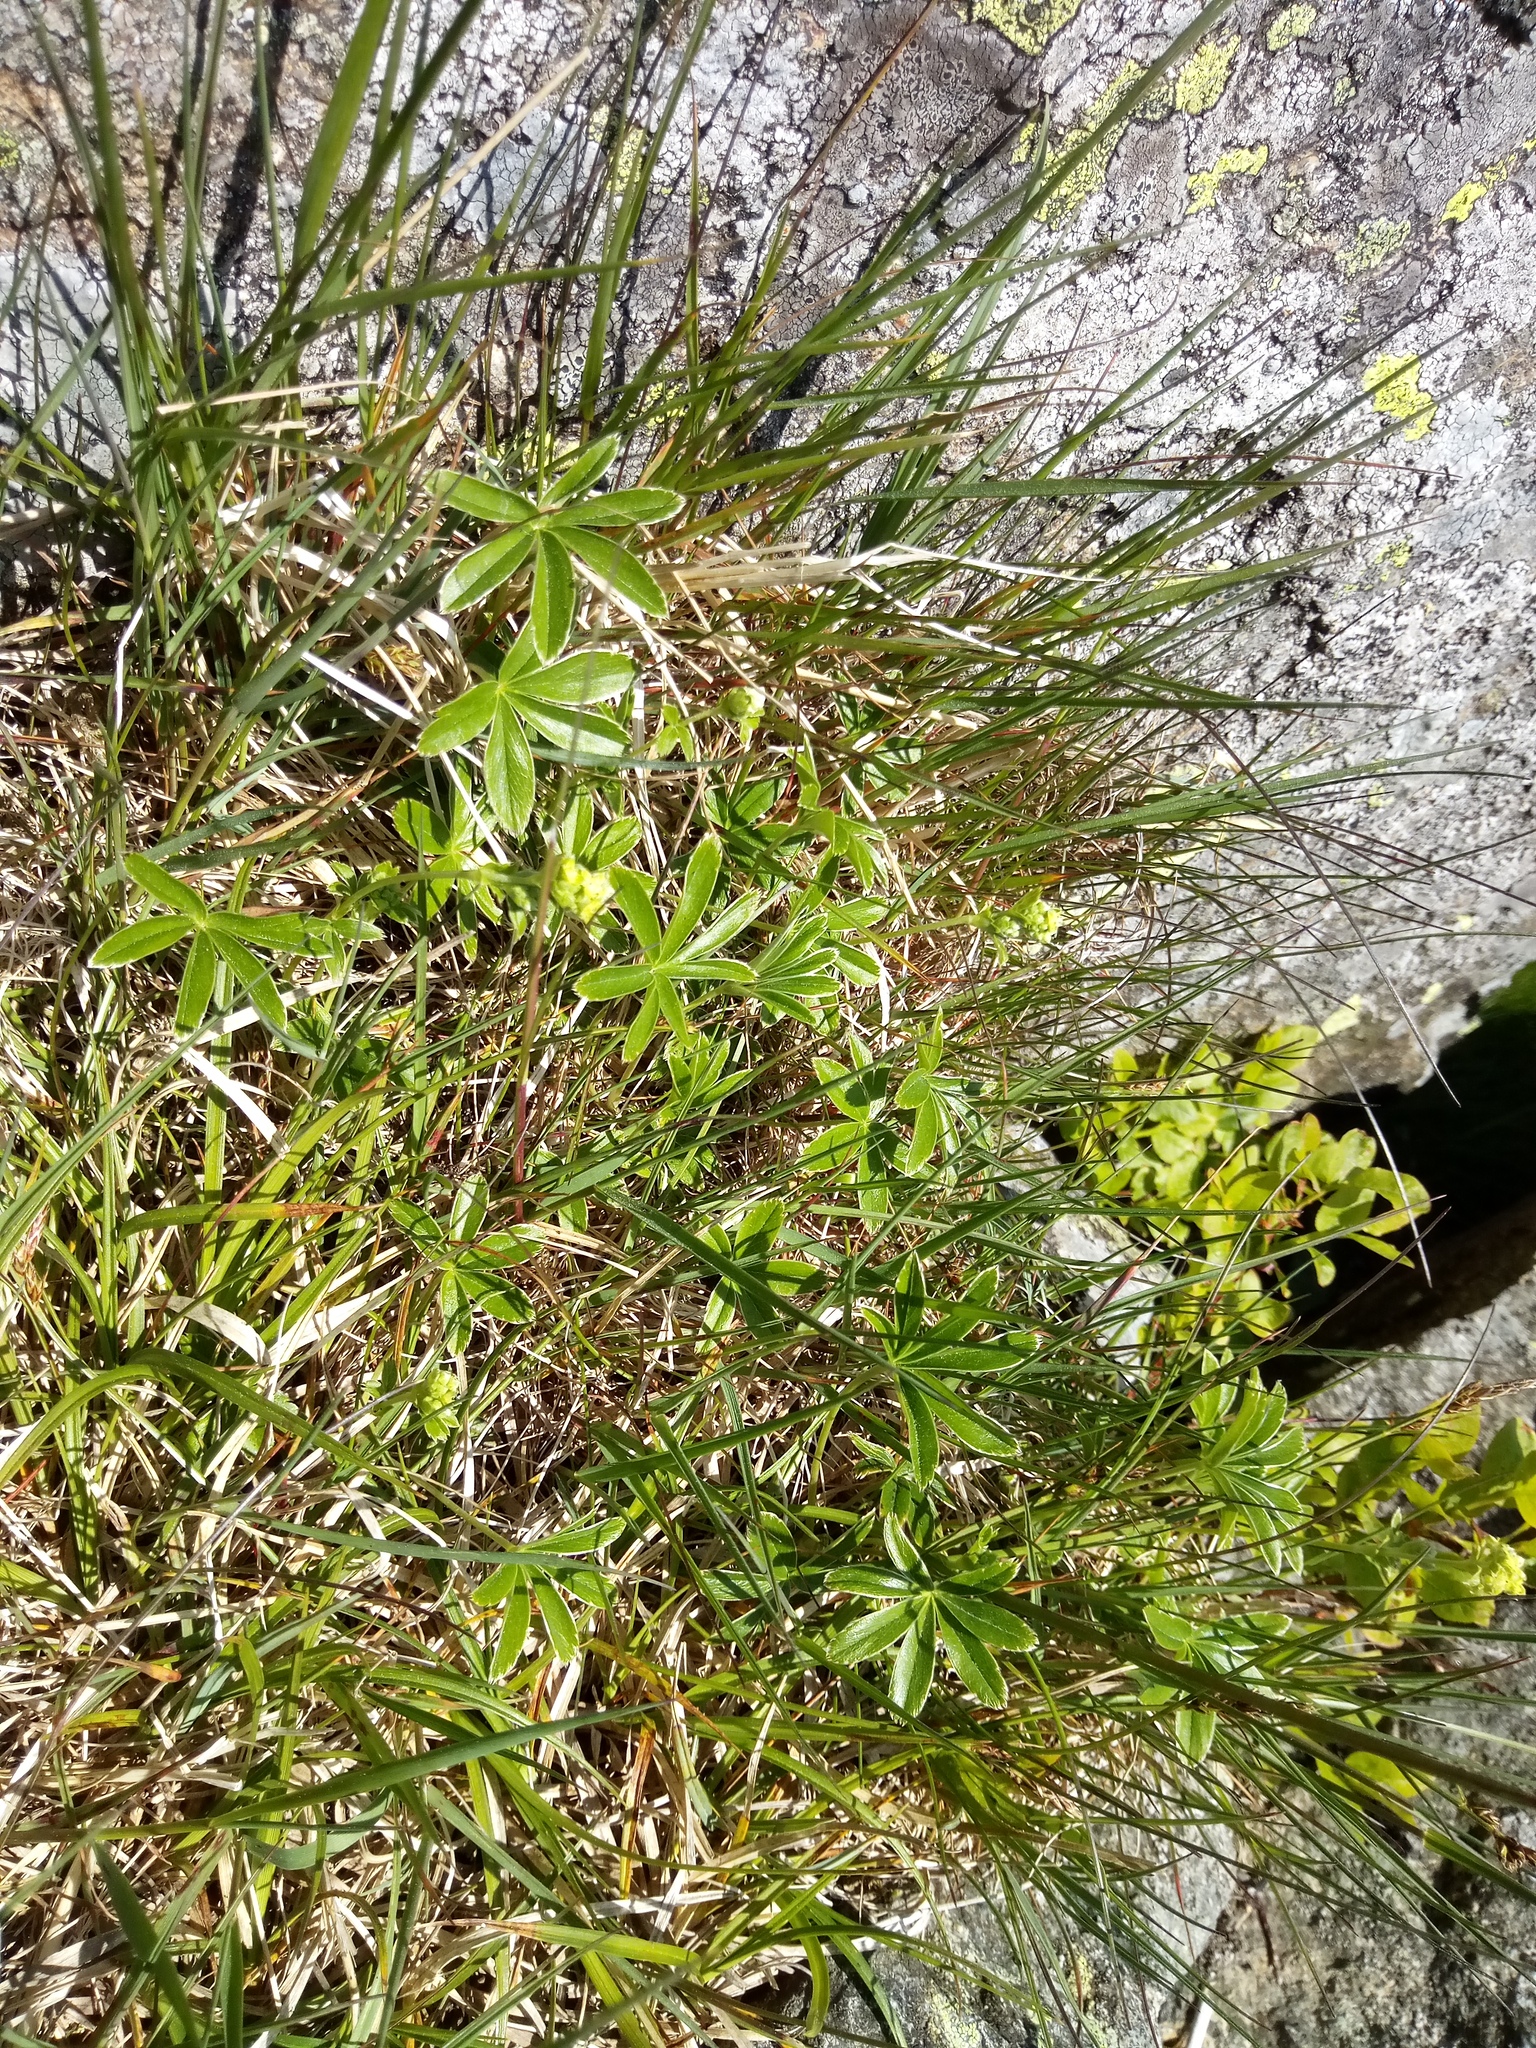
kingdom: Plantae
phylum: Tracheophyta
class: Magnoliopsida
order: Rosales
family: Rosaceae
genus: Alchemilla
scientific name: Alchemilla alpina
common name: Alpine lady's-mantle
